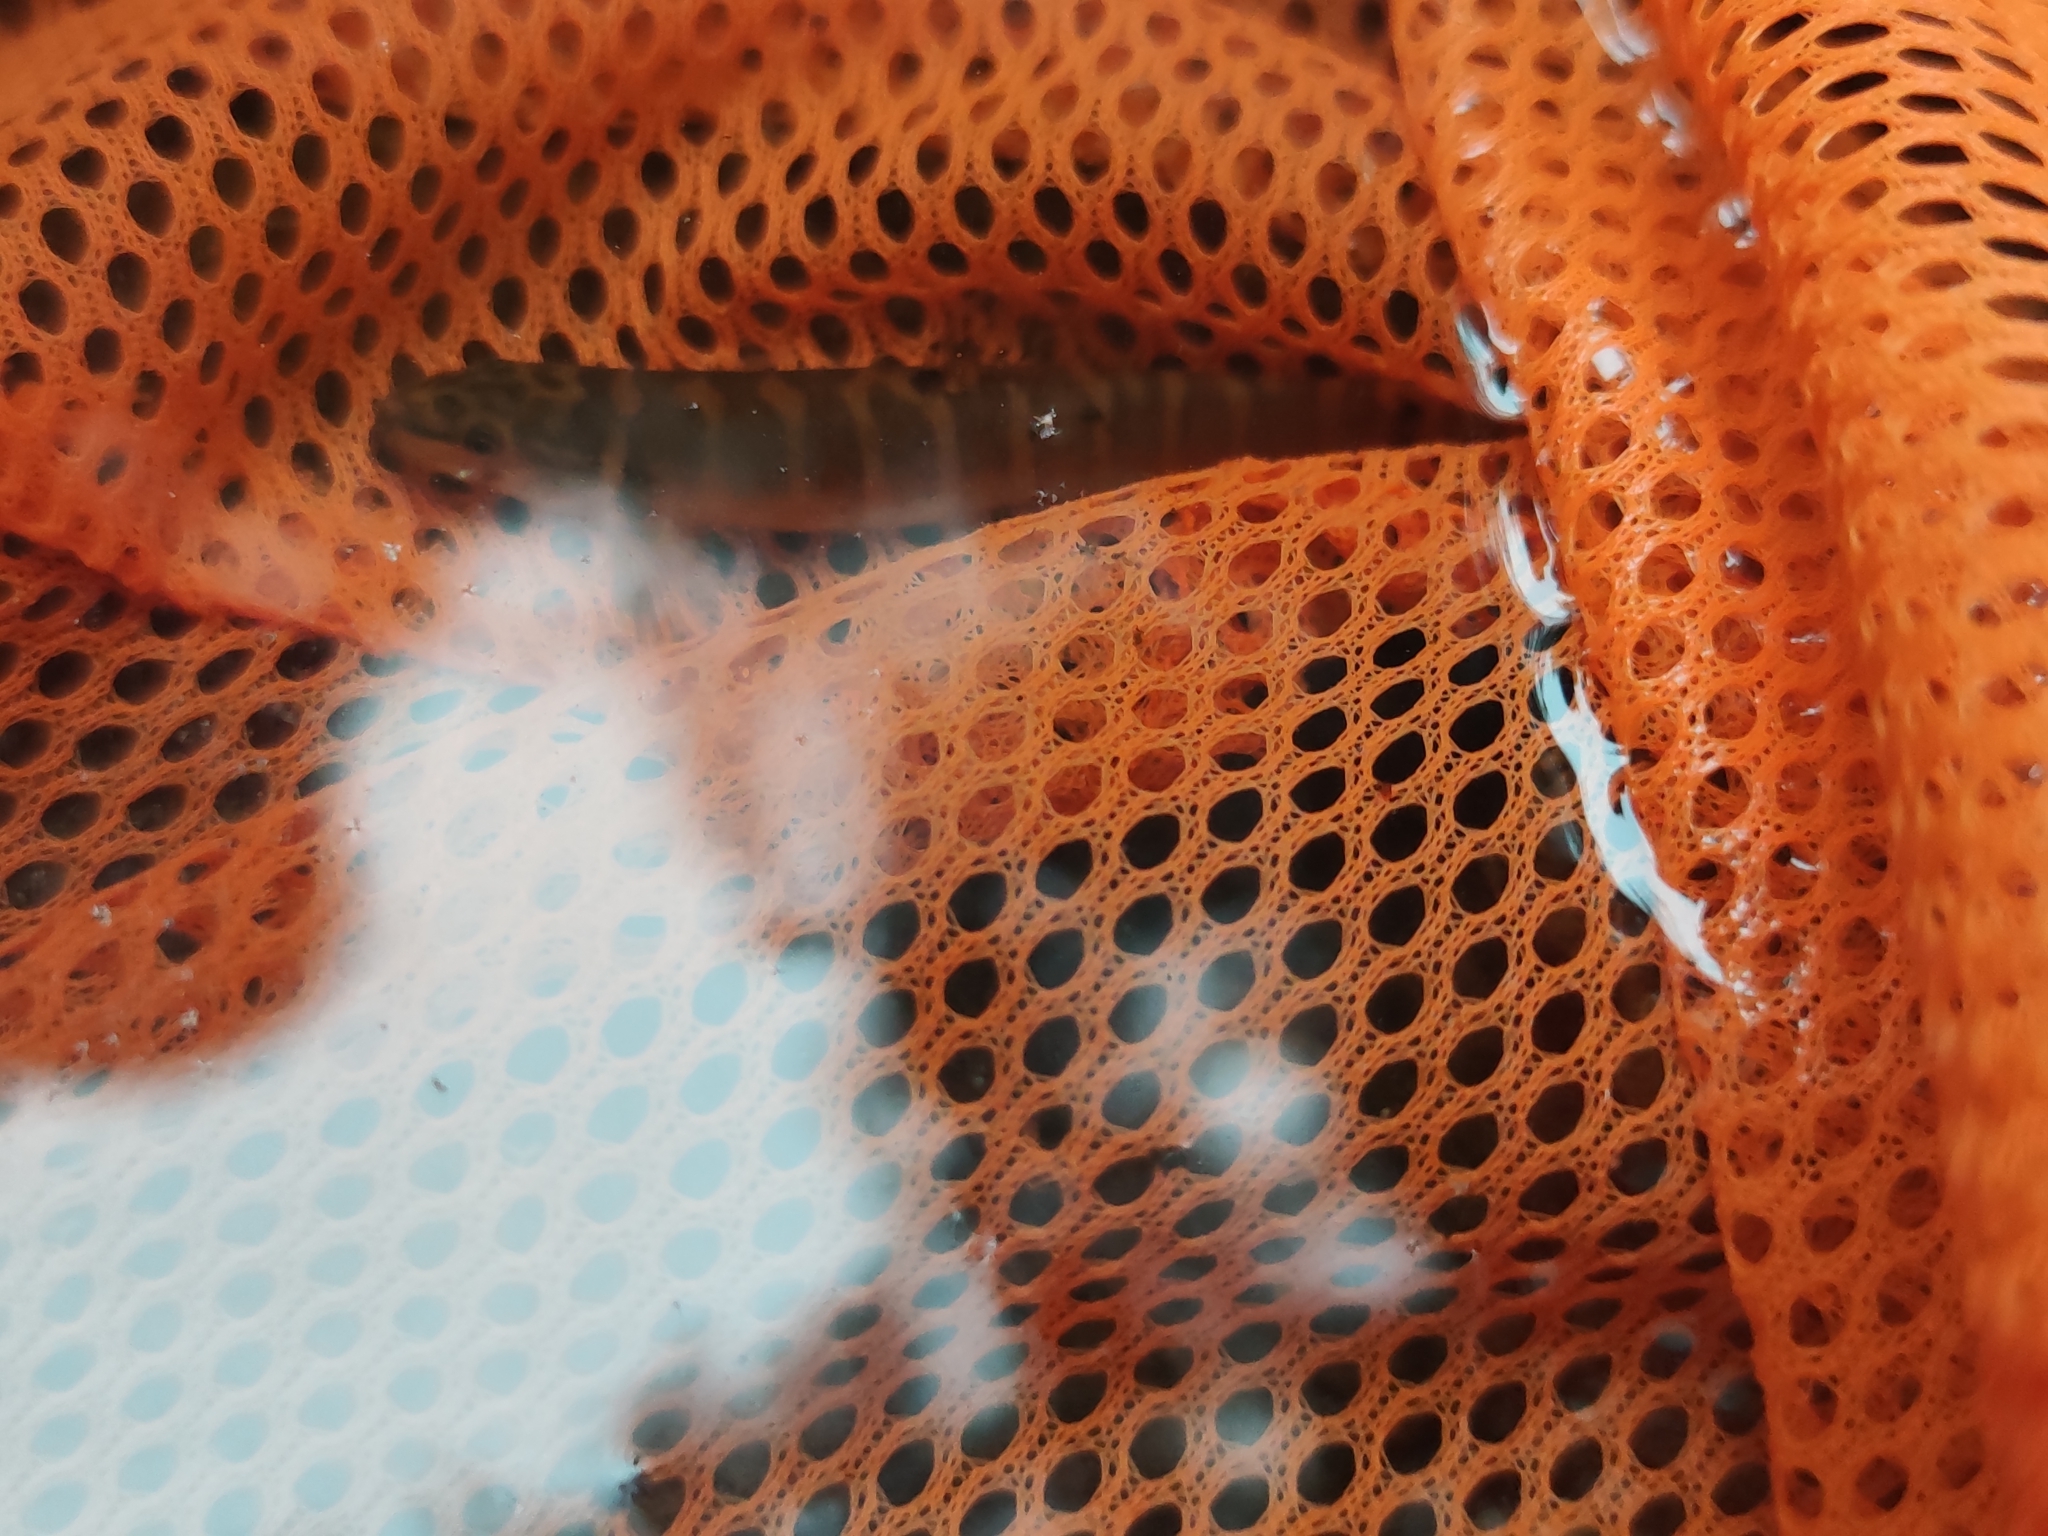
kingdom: Animalia
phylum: Chordata
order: Cypriniformes
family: Nemacheilidae
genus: Schistura
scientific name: Schistura kohchangensis
